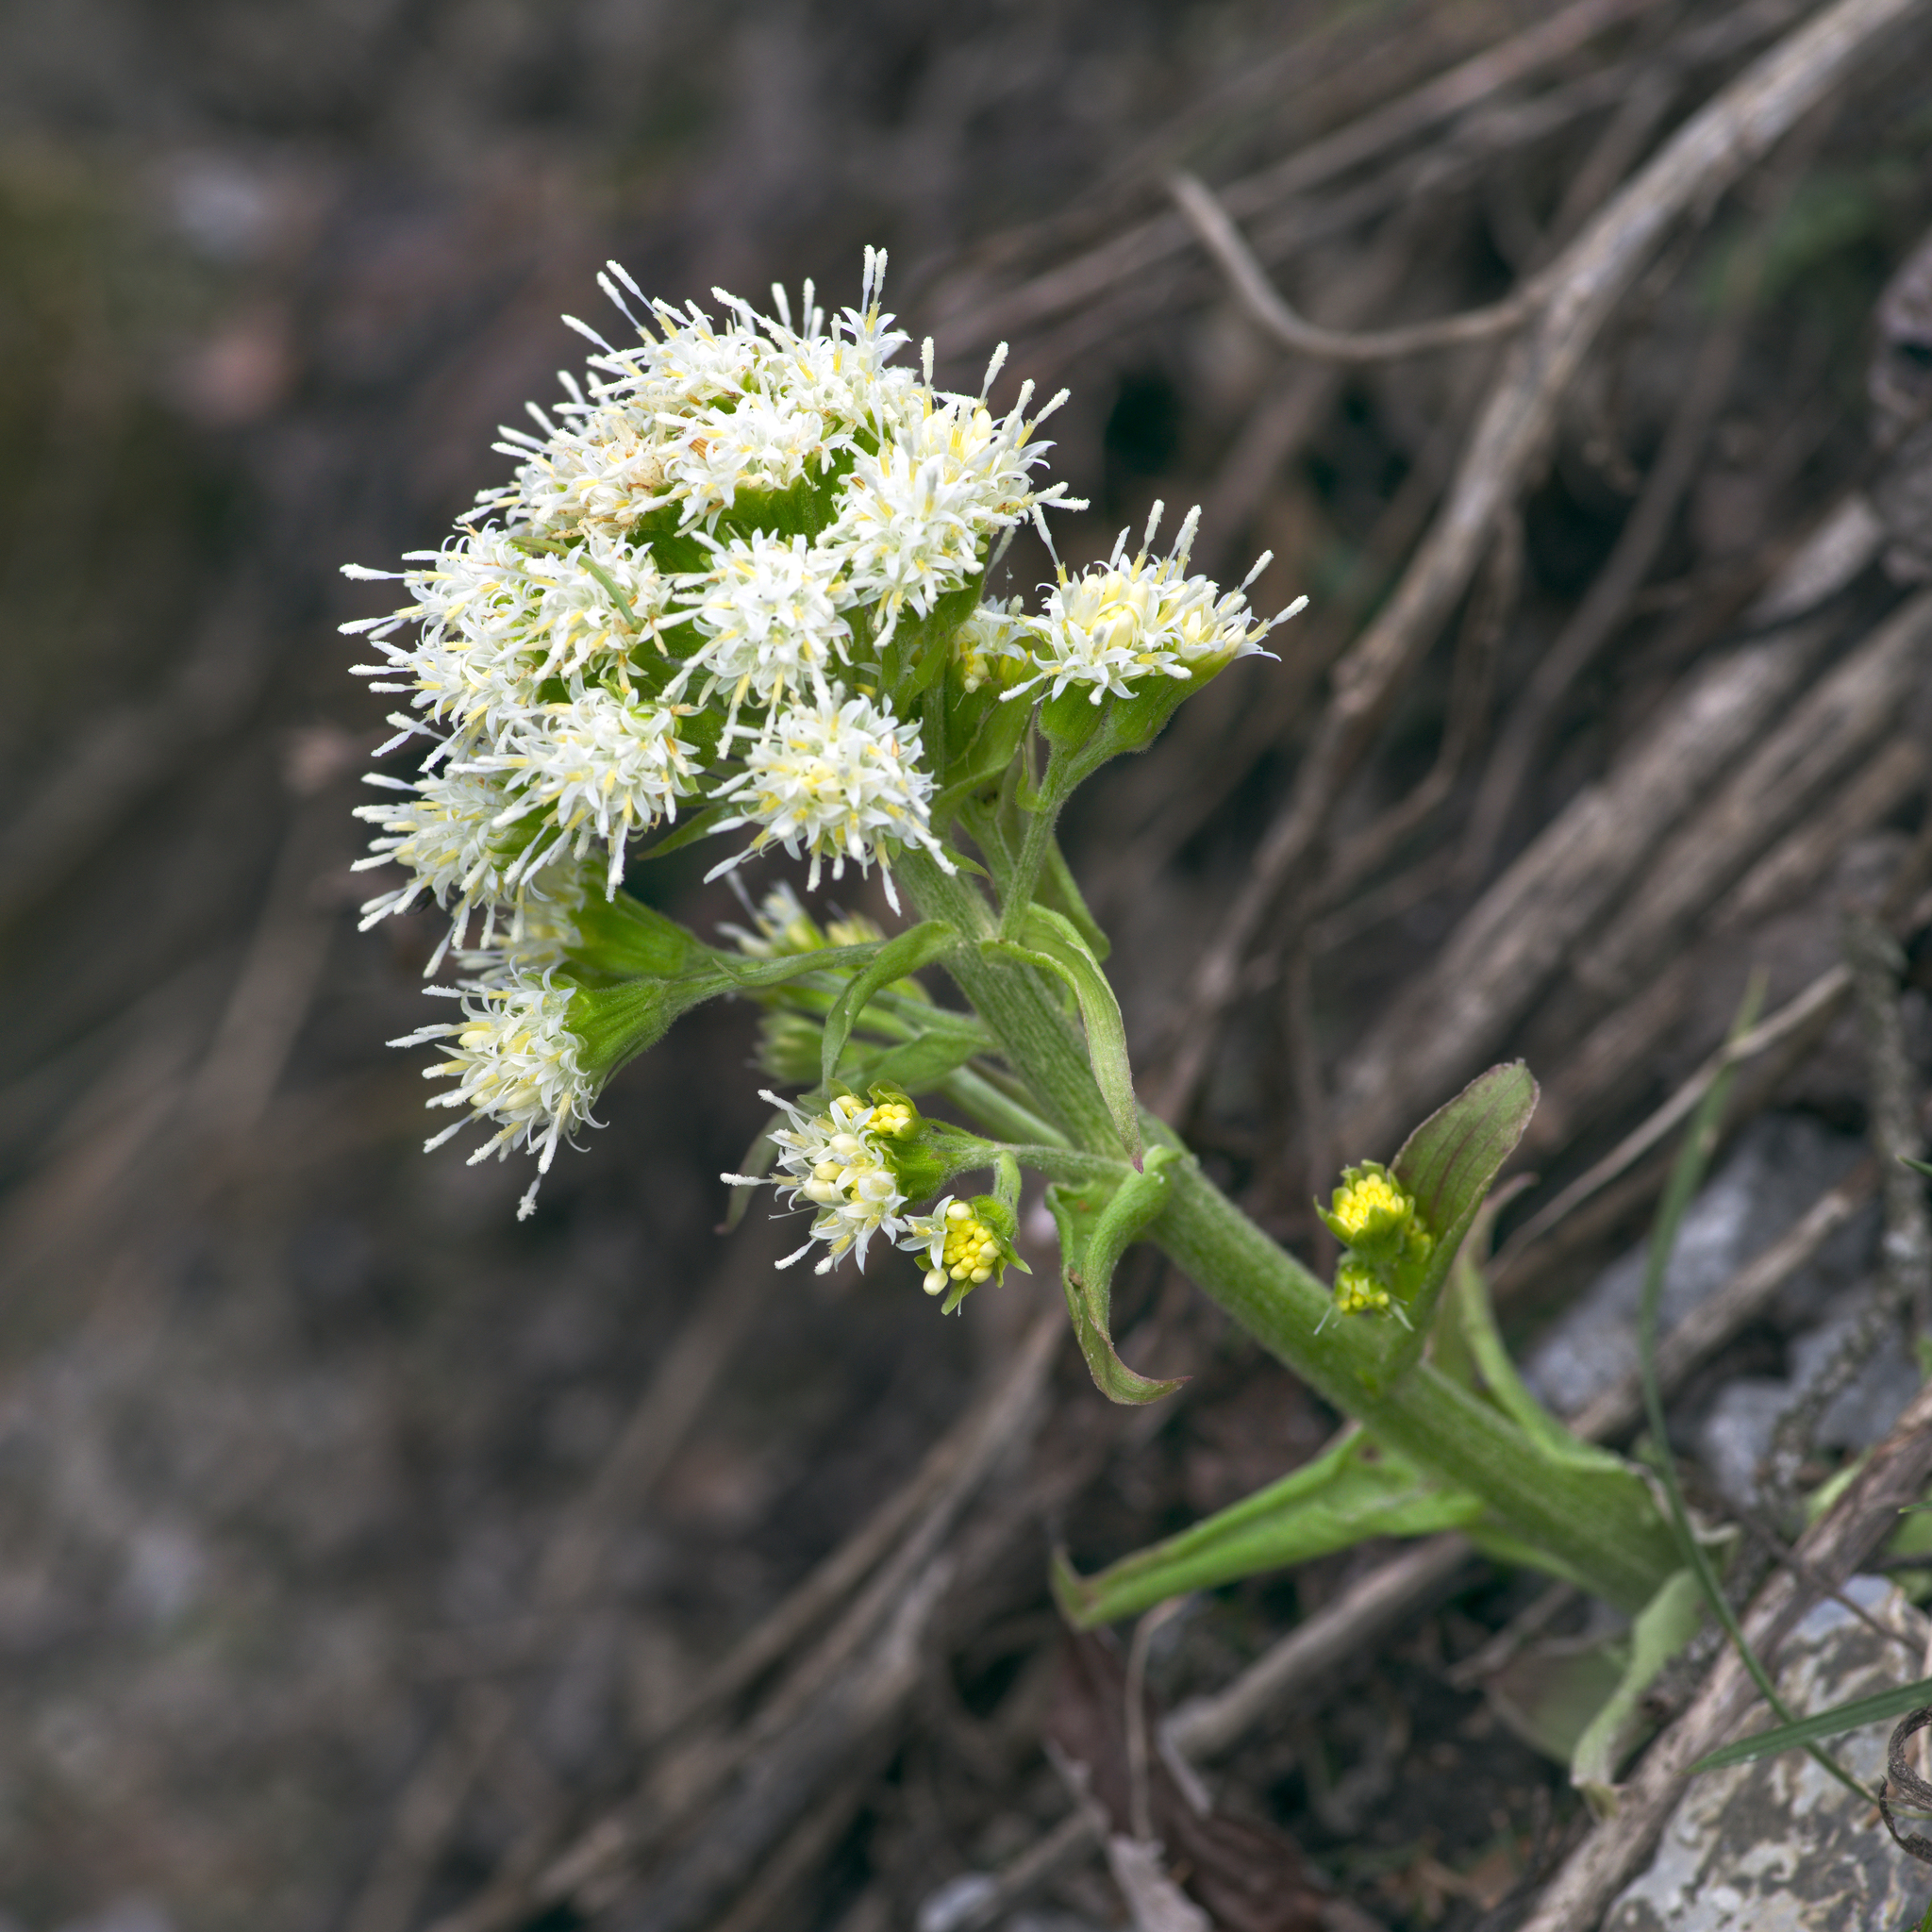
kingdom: Plantae
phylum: Tracheophyta
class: Magnoliopsida
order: Asterales
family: Asteraceae
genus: Petasites
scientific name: Petasites albus
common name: White butterbur
